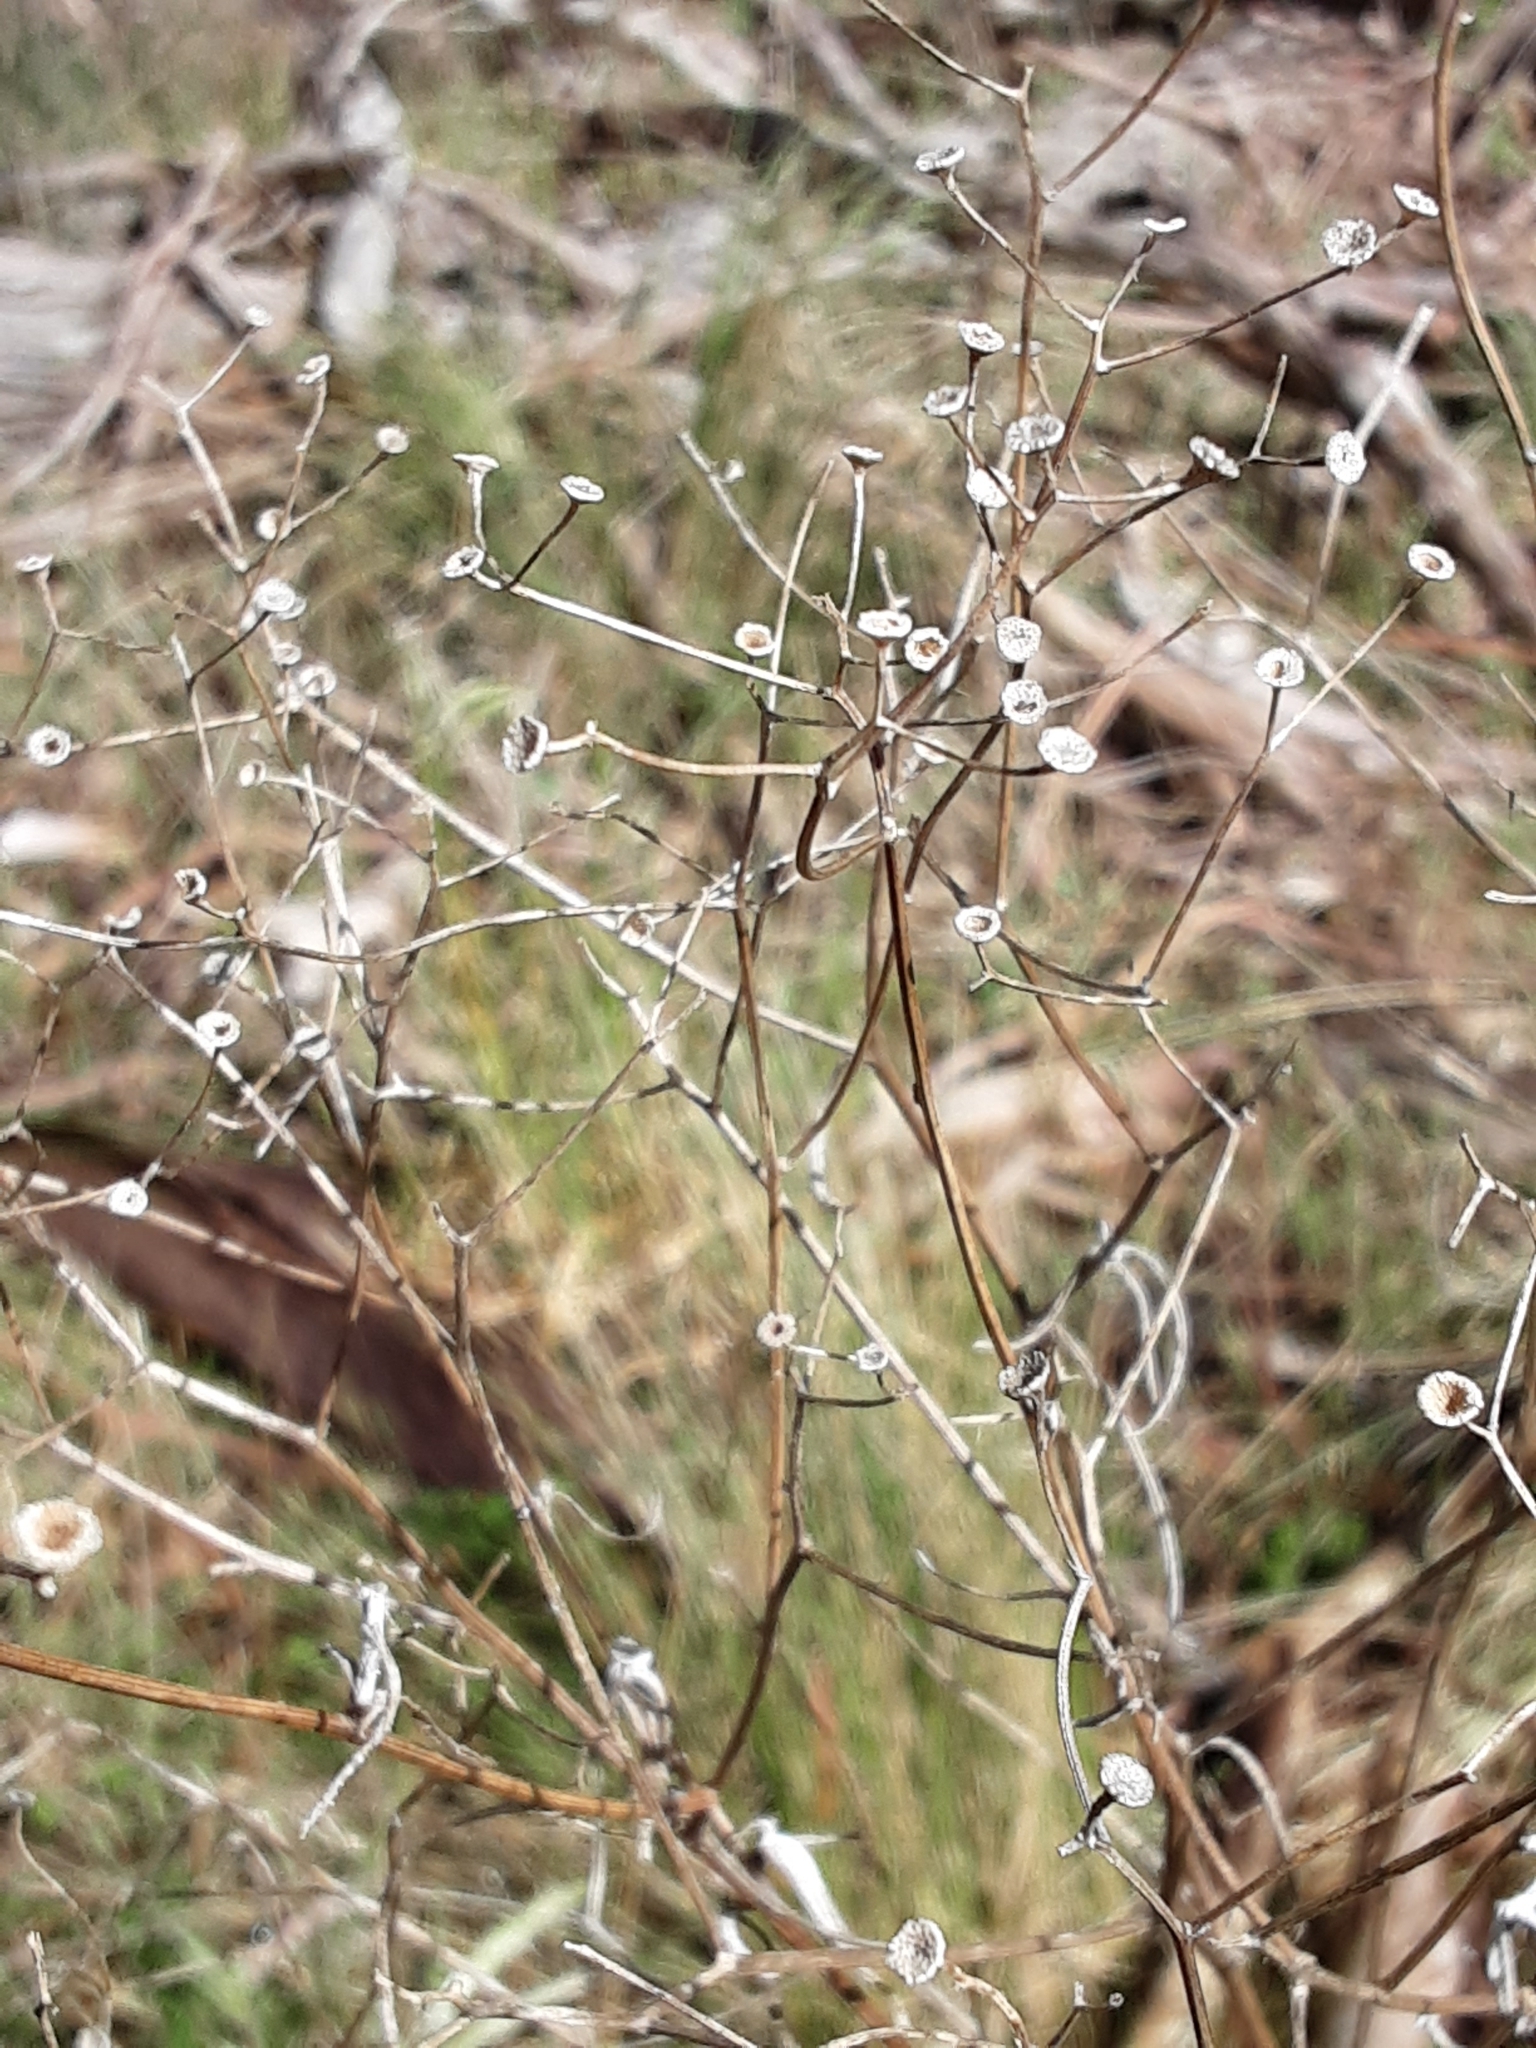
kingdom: Plantae
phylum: Tracheophyta
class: Magnoliopsida
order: Asterales
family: Asteraceae
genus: Senecio
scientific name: Senecio quadridentatus
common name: Cotton fireweed
